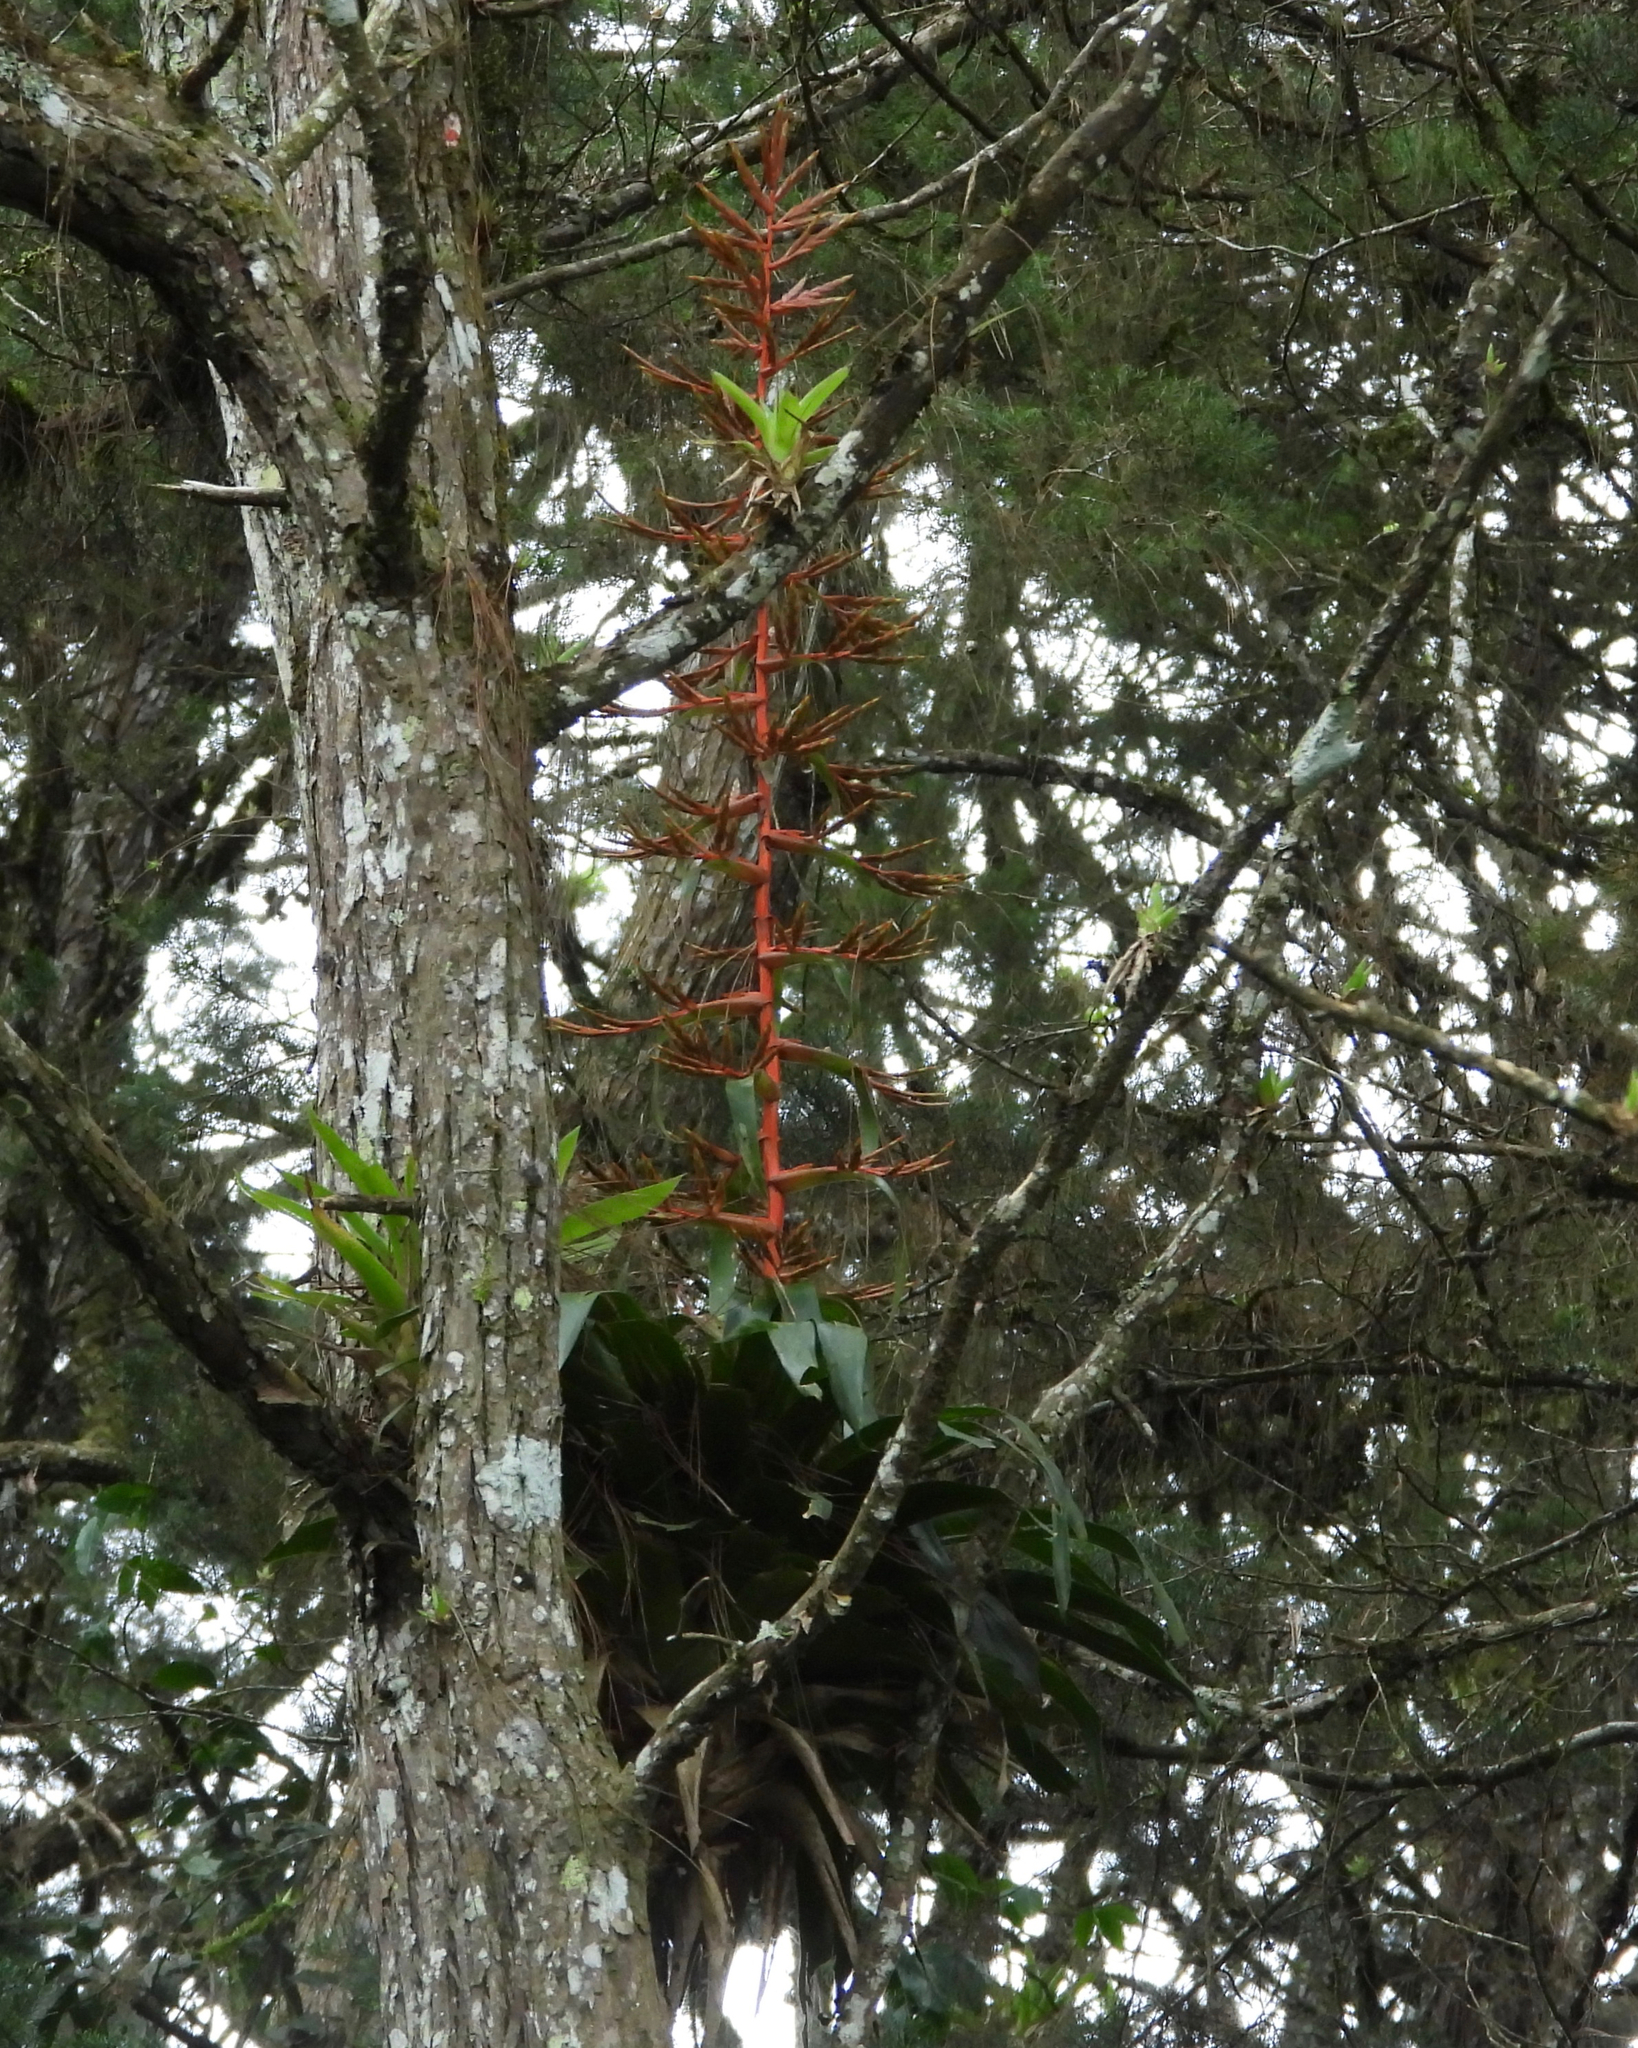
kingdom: Plantae
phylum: Tracheophyta
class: Liliopsida
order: Poales
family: Bromeliaceae
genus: Tillandsia
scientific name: Tillandsia guatemalensis
